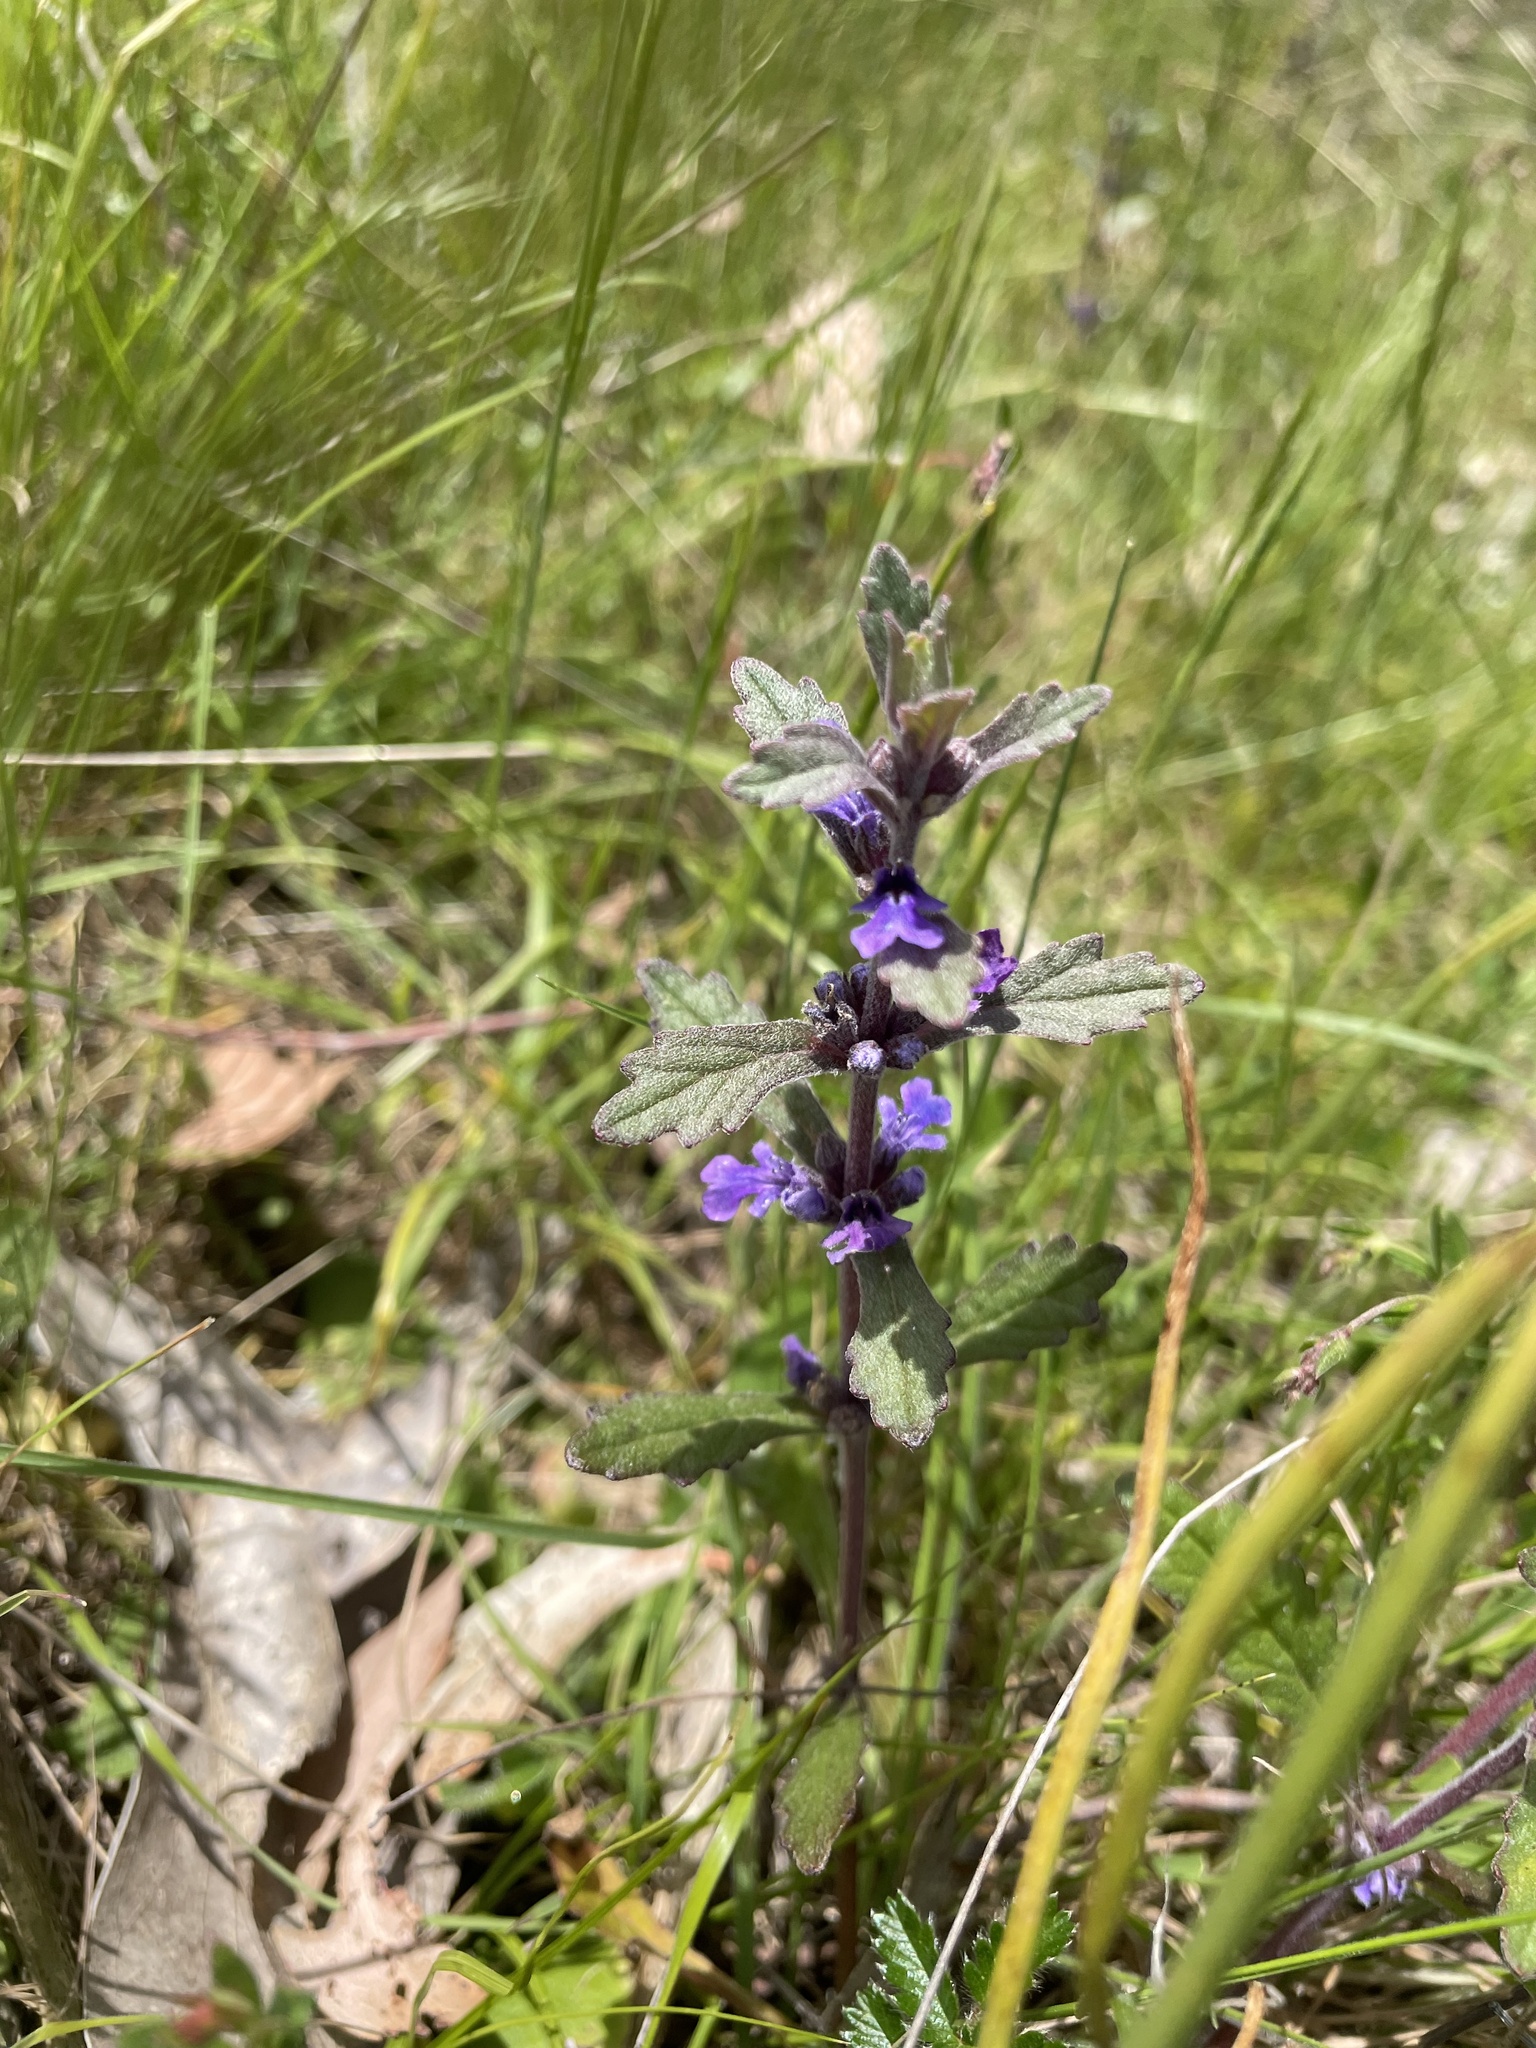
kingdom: Plantae
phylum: Tracheophyta
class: Magnoliopsida
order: Lamiales
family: Lamiaceae
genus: Ajuga
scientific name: Ajuga australis
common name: Australian bugle
